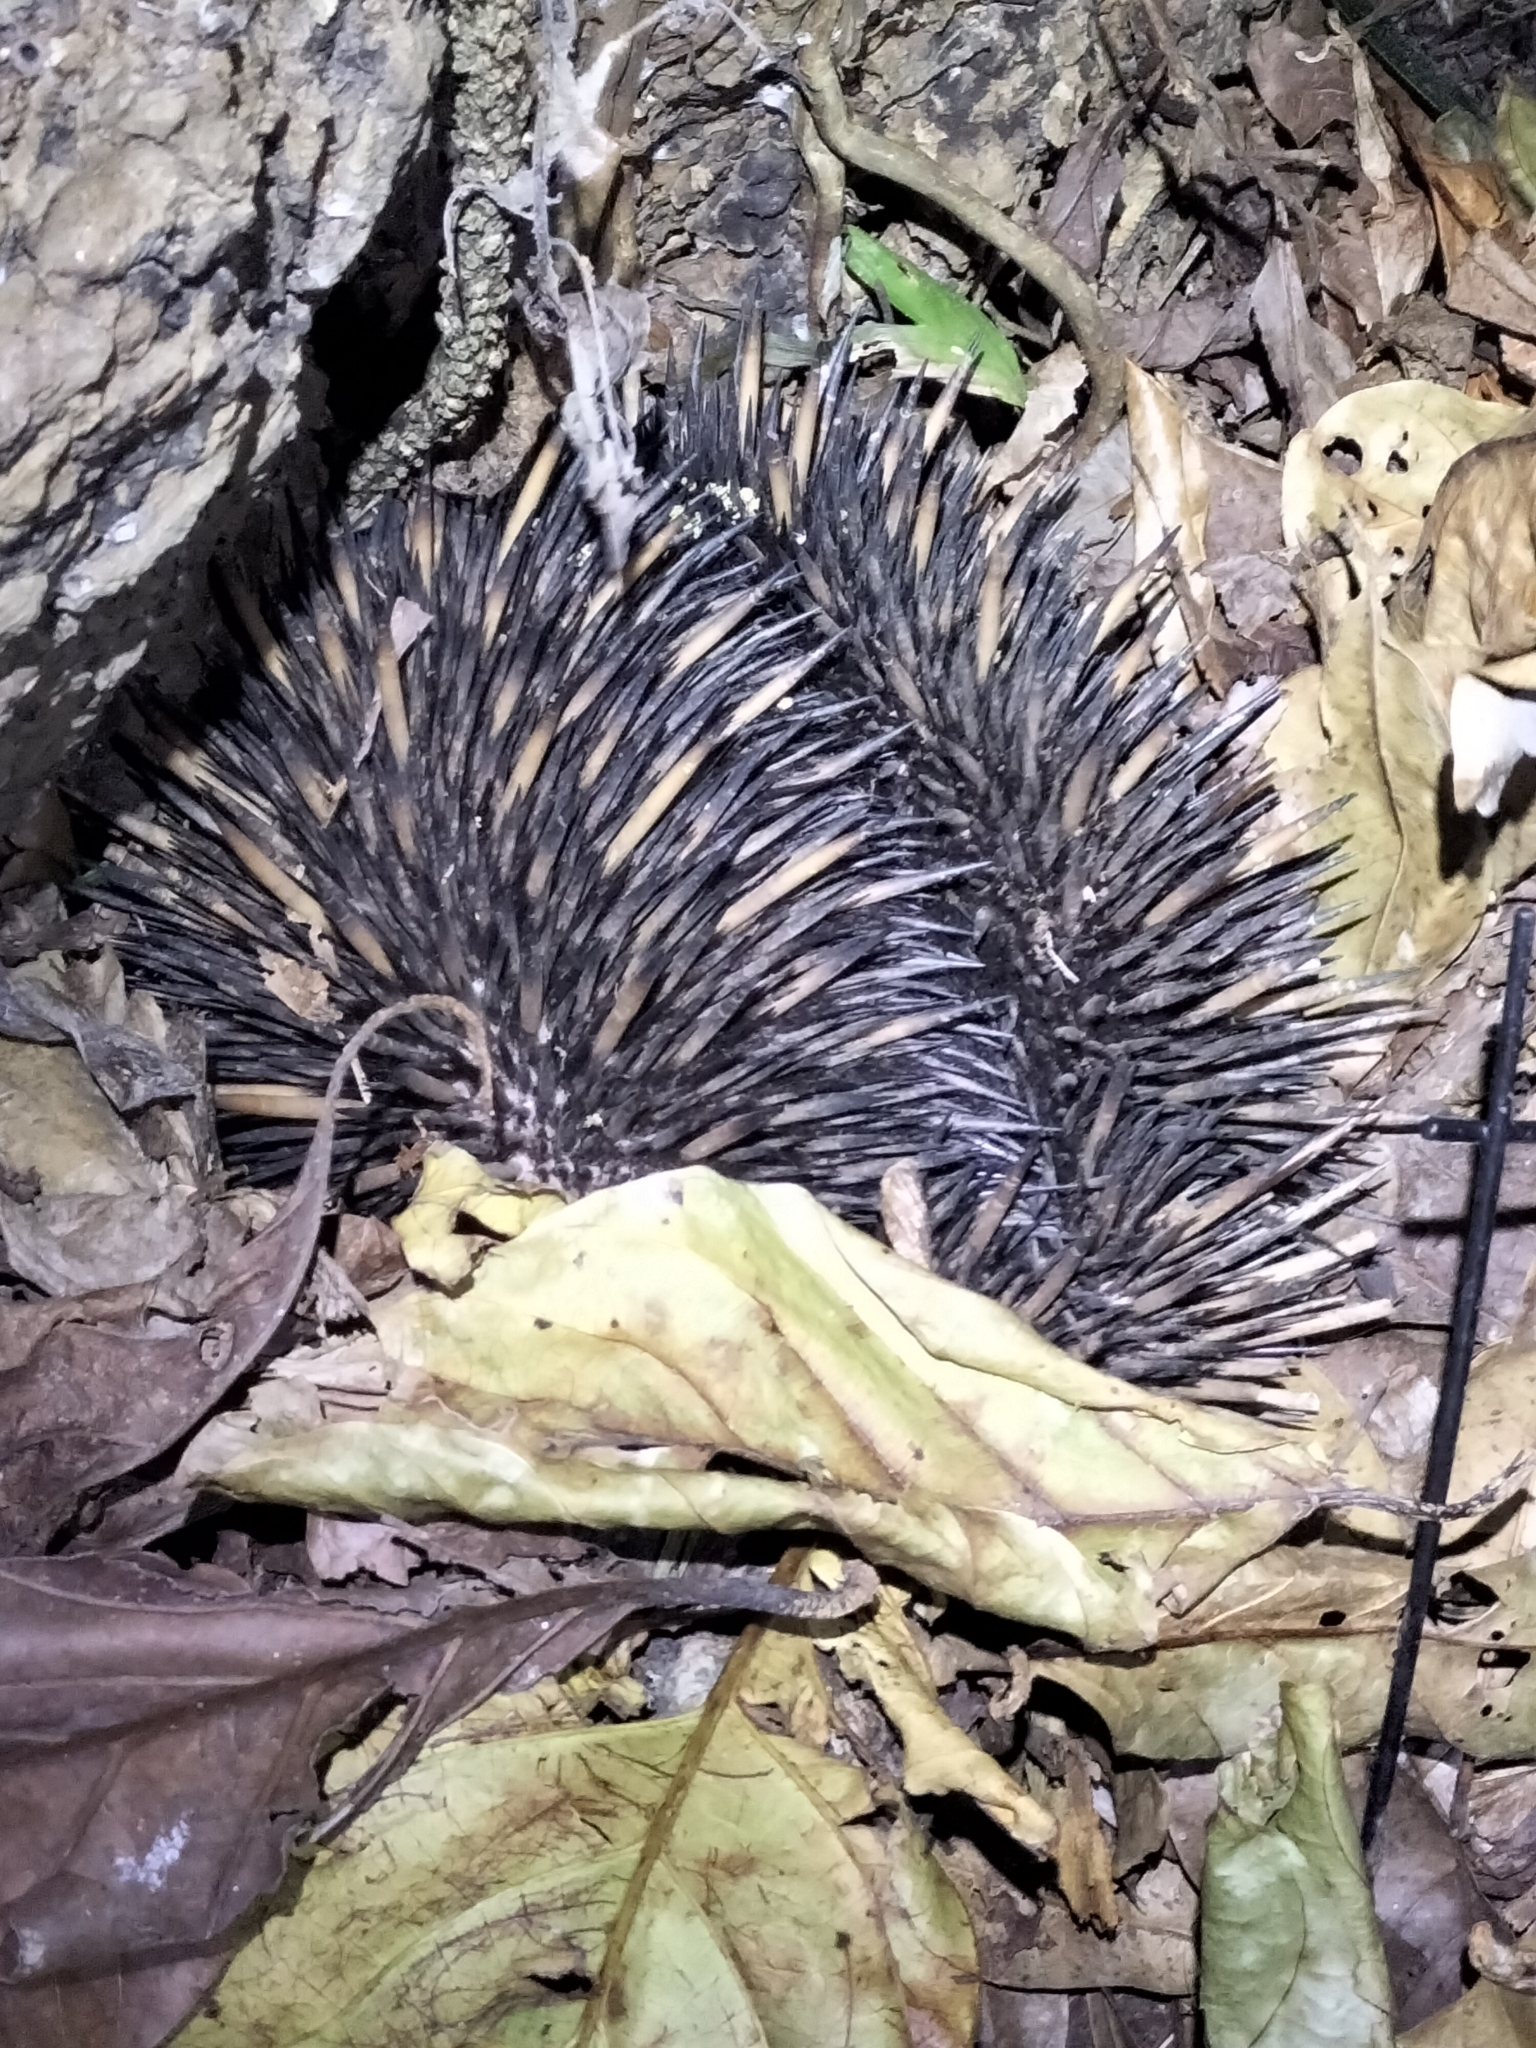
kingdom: Animalia
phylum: Chordata
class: Mammalia
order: Monotremata
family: Tachyglossidae
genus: Tachyglossus
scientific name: Tachyglossus aculeatus
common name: Short-beaked echidna
